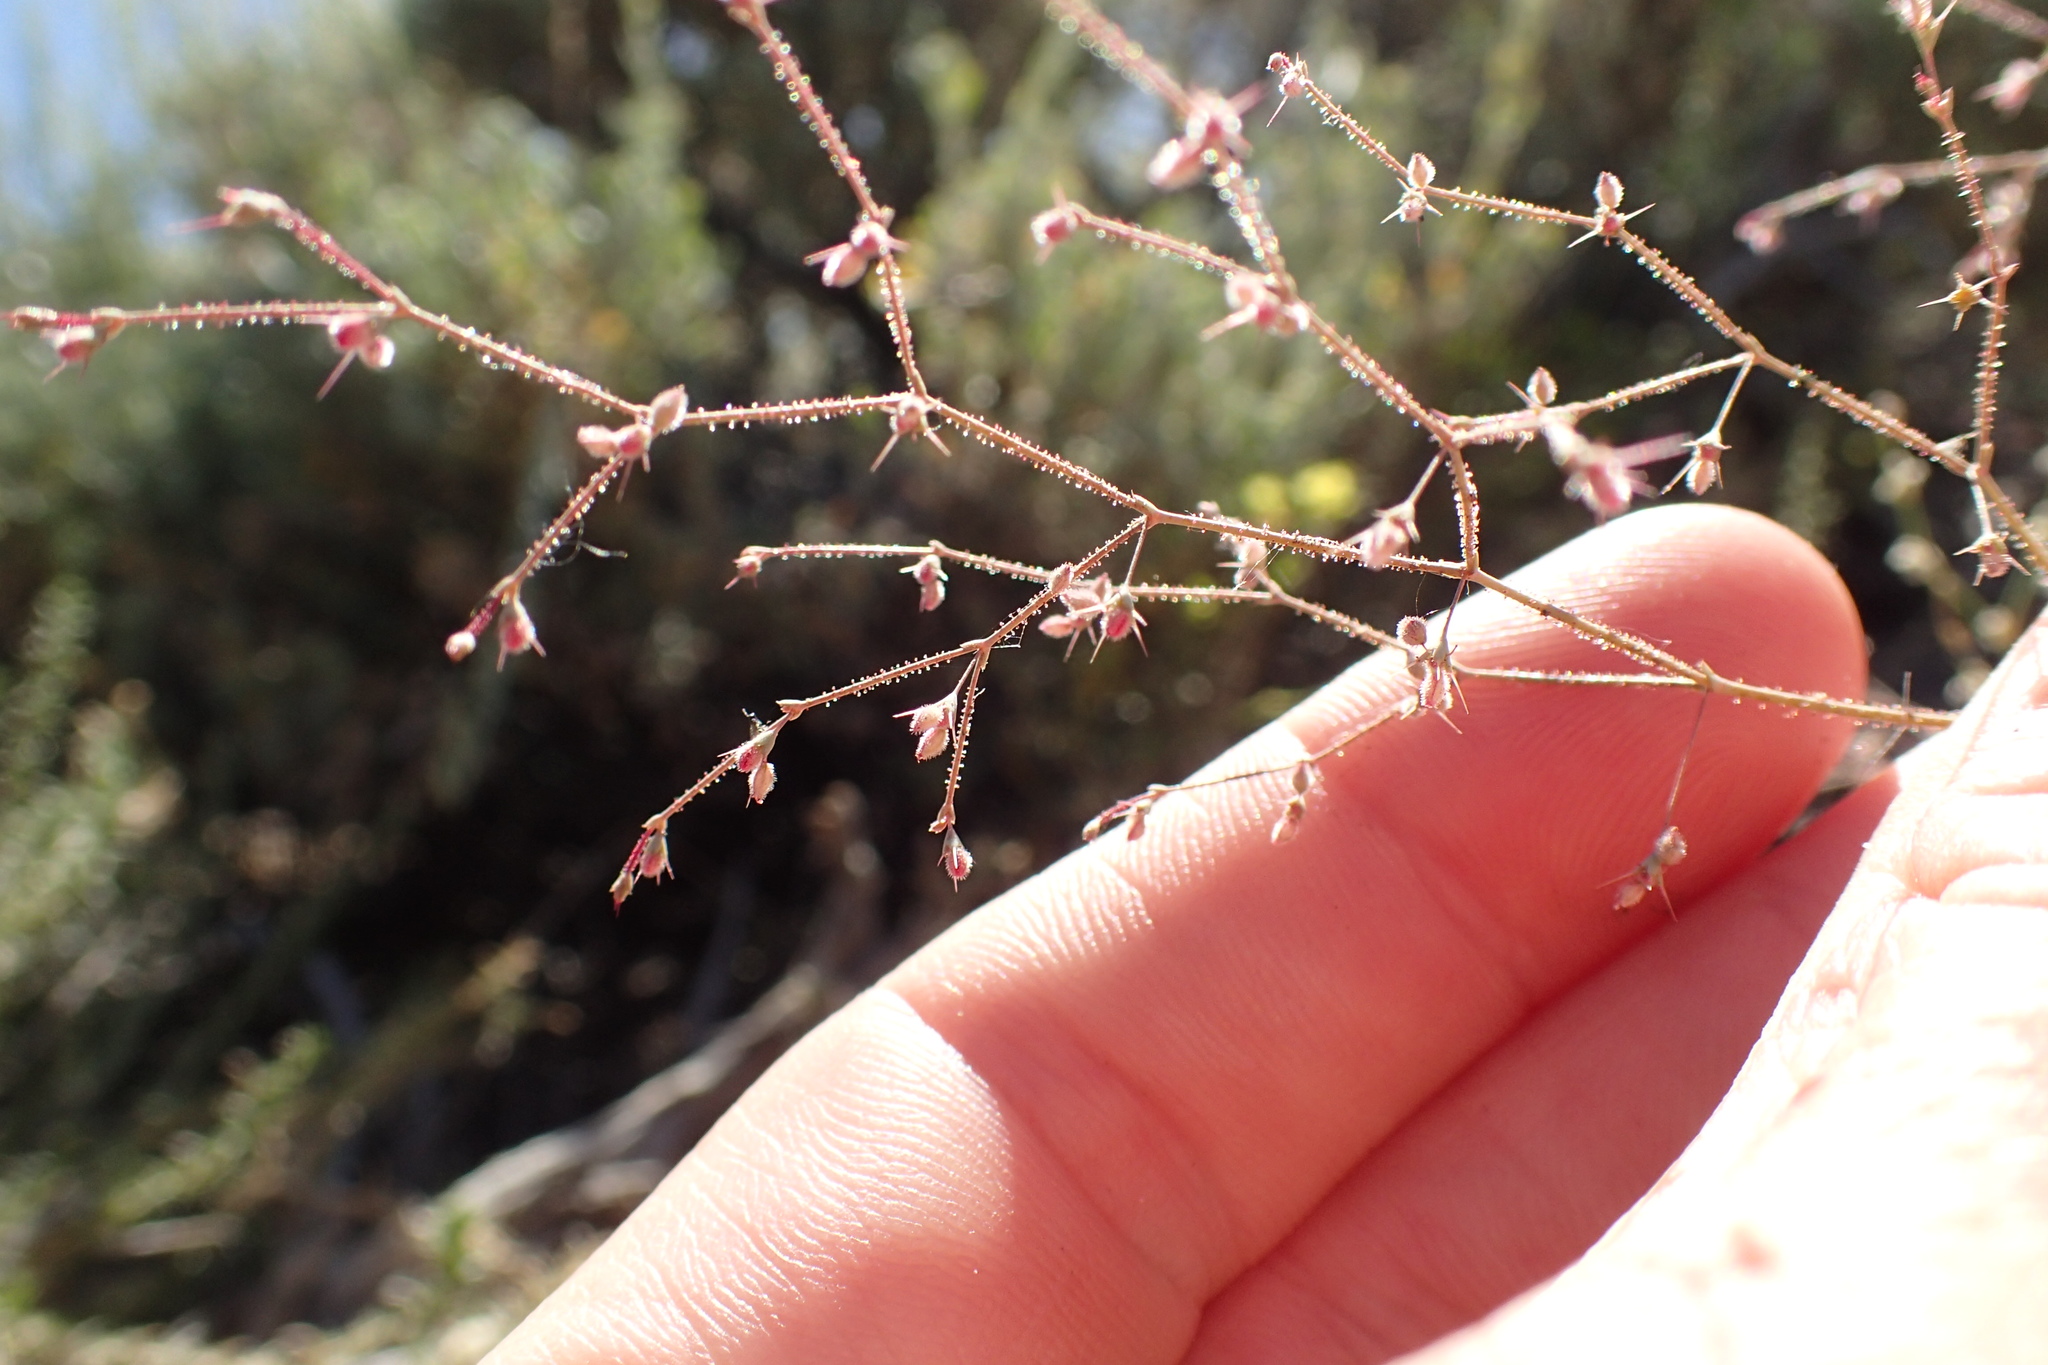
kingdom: Plantae
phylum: Tracheophyta
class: Magnoliopsida
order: Caryophyllales
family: Polygonaceae
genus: Oxytheca
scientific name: Oxytheca dendroidea
